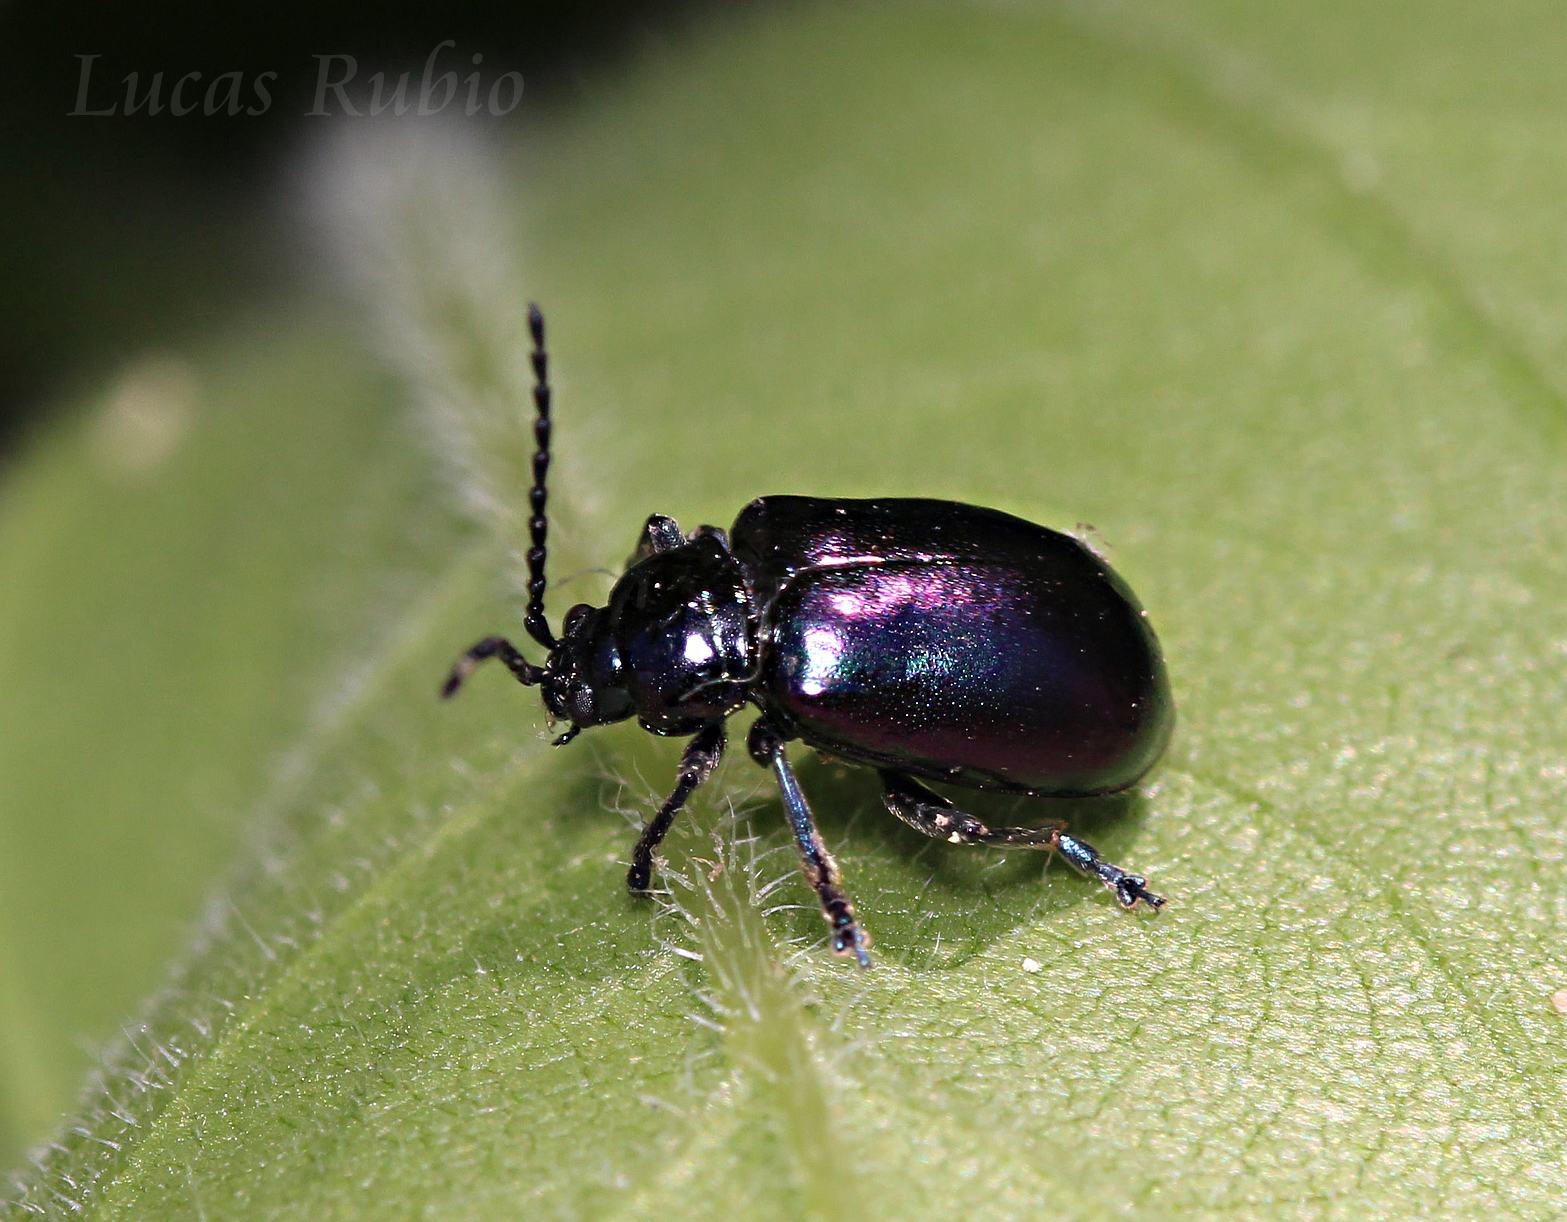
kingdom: Animalia
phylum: Arthropoda
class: Insecta
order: Coleoptera
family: Chrysomelidae
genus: Macrohaltica
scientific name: Macrohaltica
